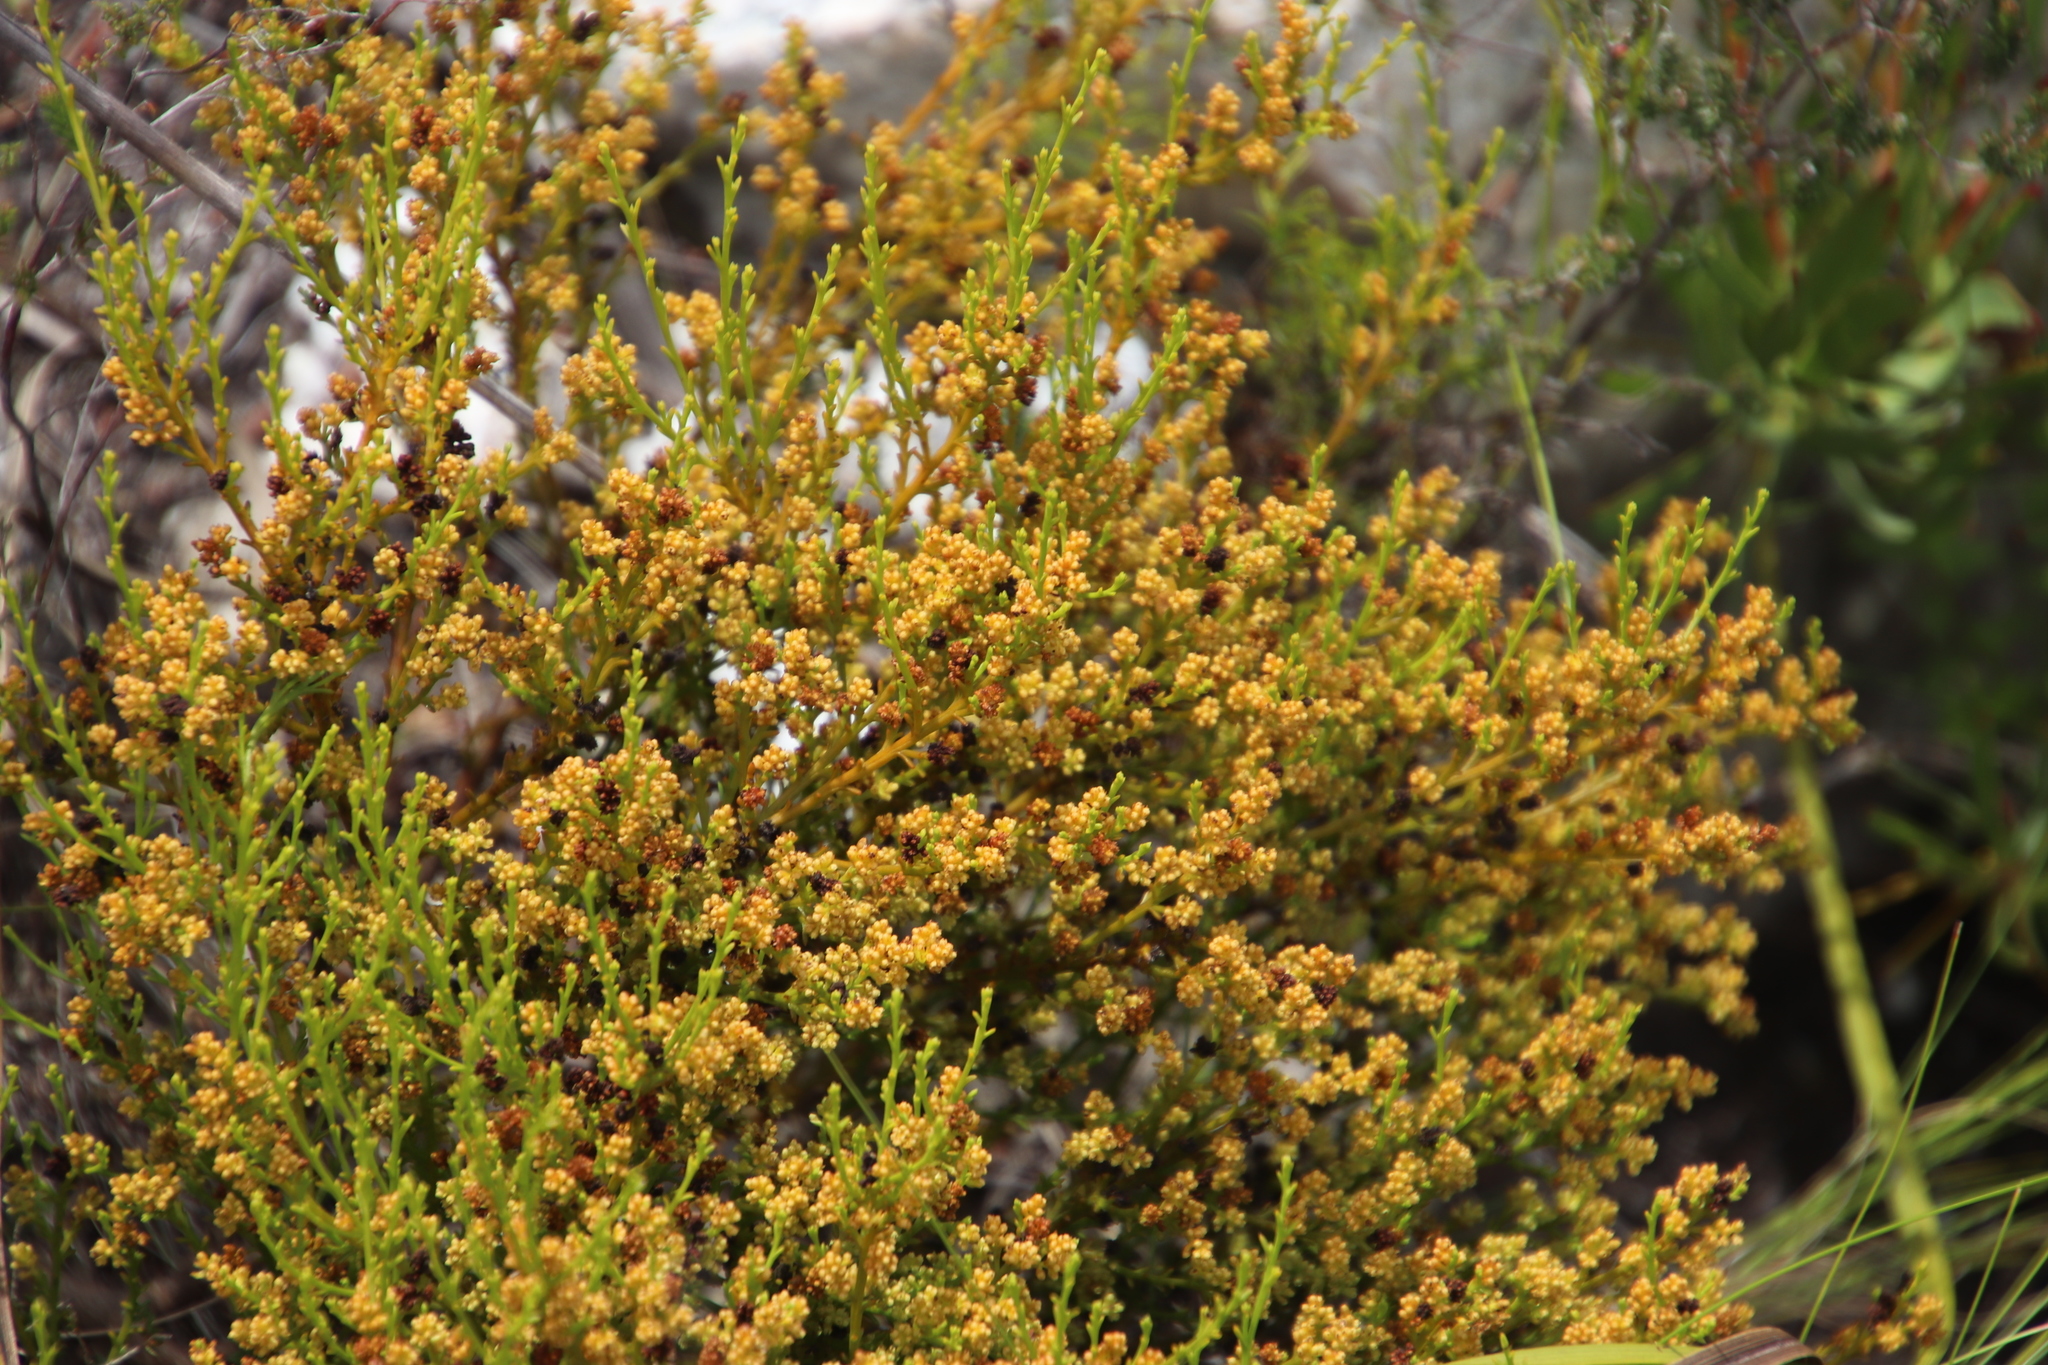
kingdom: Plantae
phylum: Tracheophyta
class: Magnoliopsida
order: Santalales
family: Thesiaceae
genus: Thesium
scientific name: Thesium ericiifolium
